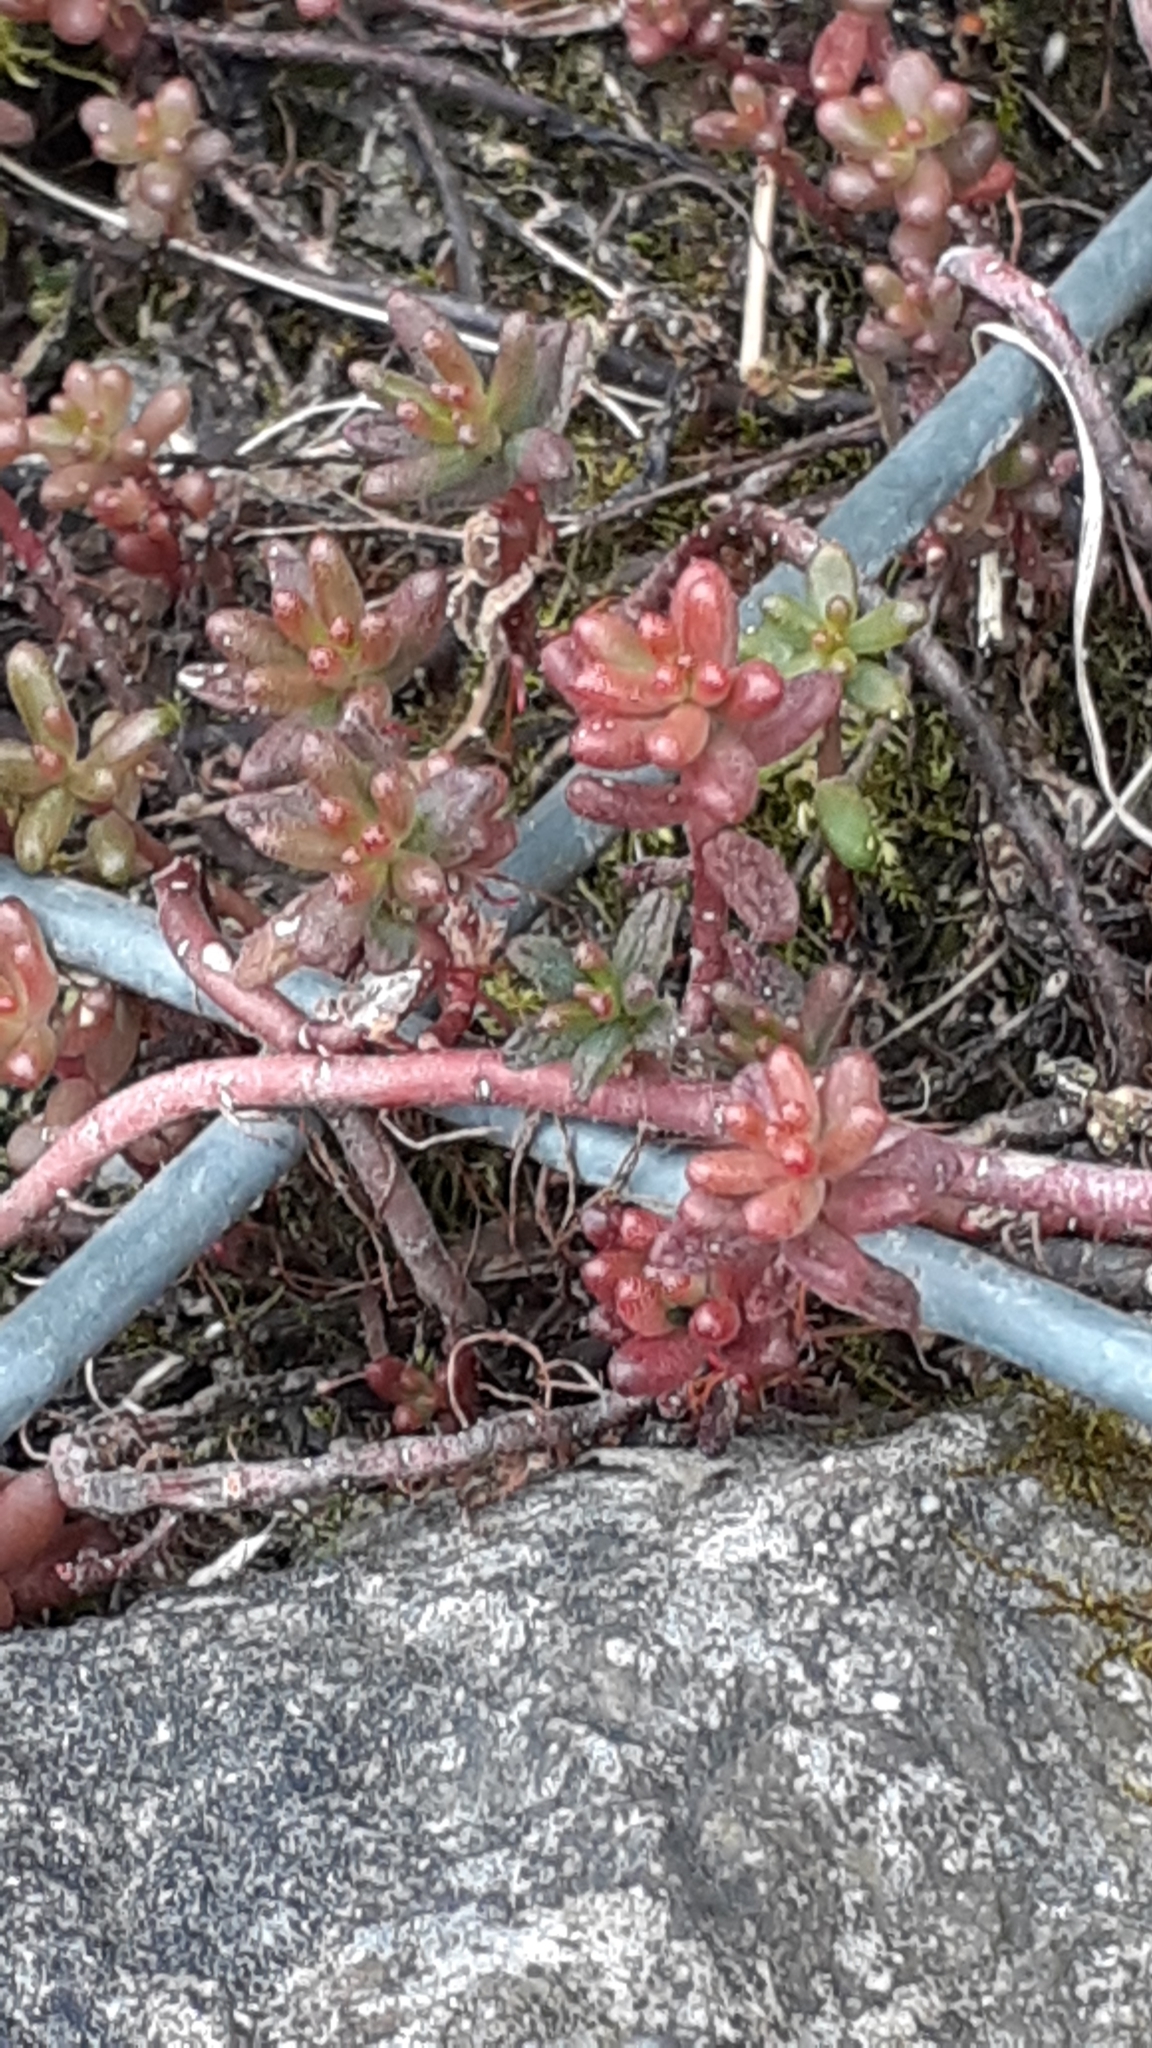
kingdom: Plantae
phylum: Tracheophyta
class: Magnoliopsida
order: Saxifragales
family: Crassulaceae
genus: Sedum
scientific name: Sedum album
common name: White stonecrop
